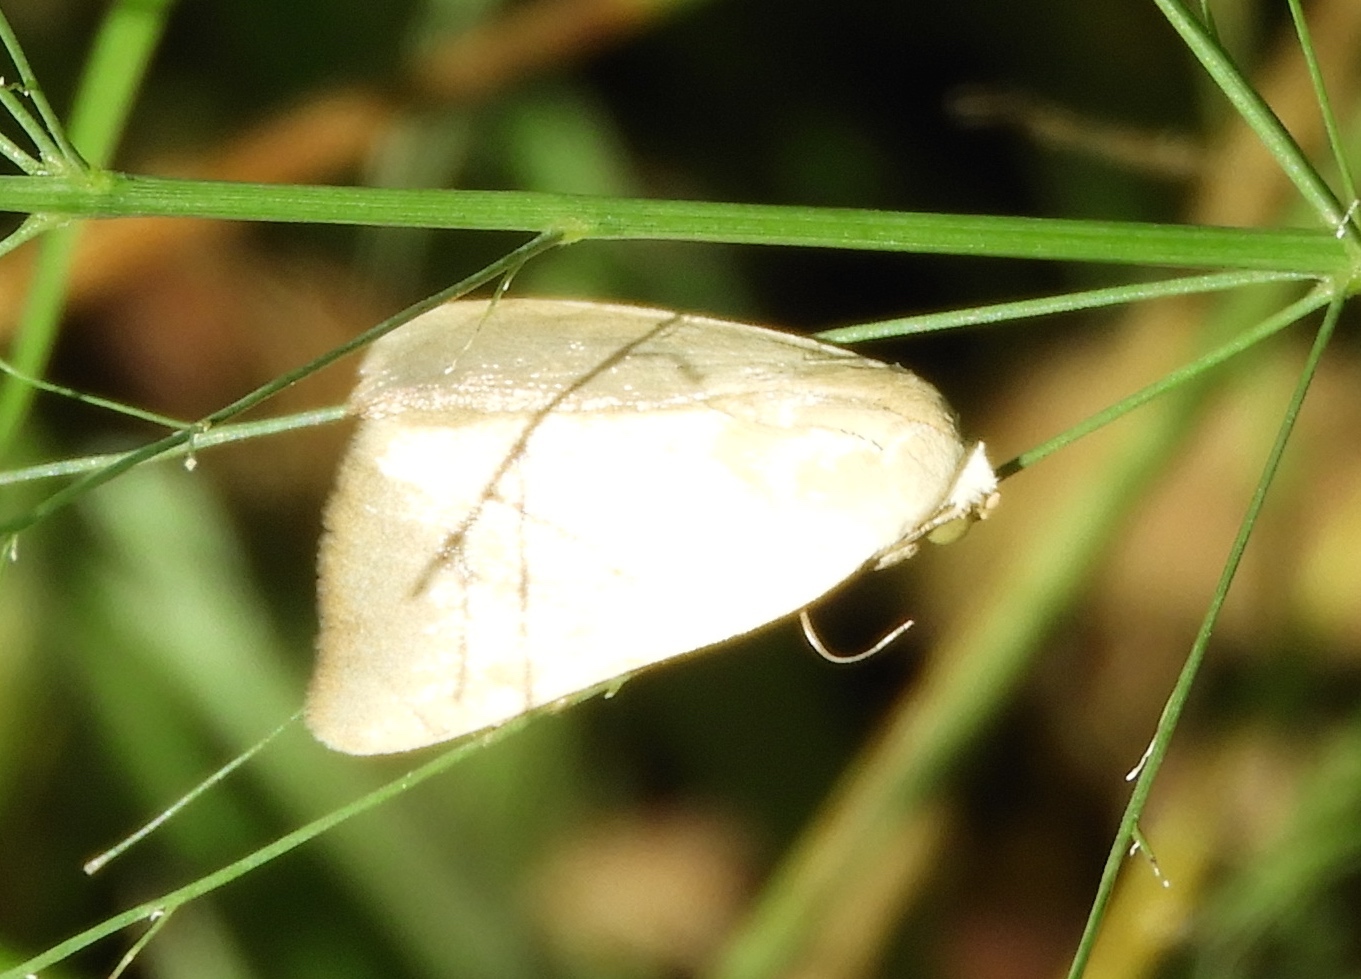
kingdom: Animalia
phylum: Arthropoda
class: Insecta
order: Lepidoptera
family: Noctuidae
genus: Bagisara
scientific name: Bagisara buxea
